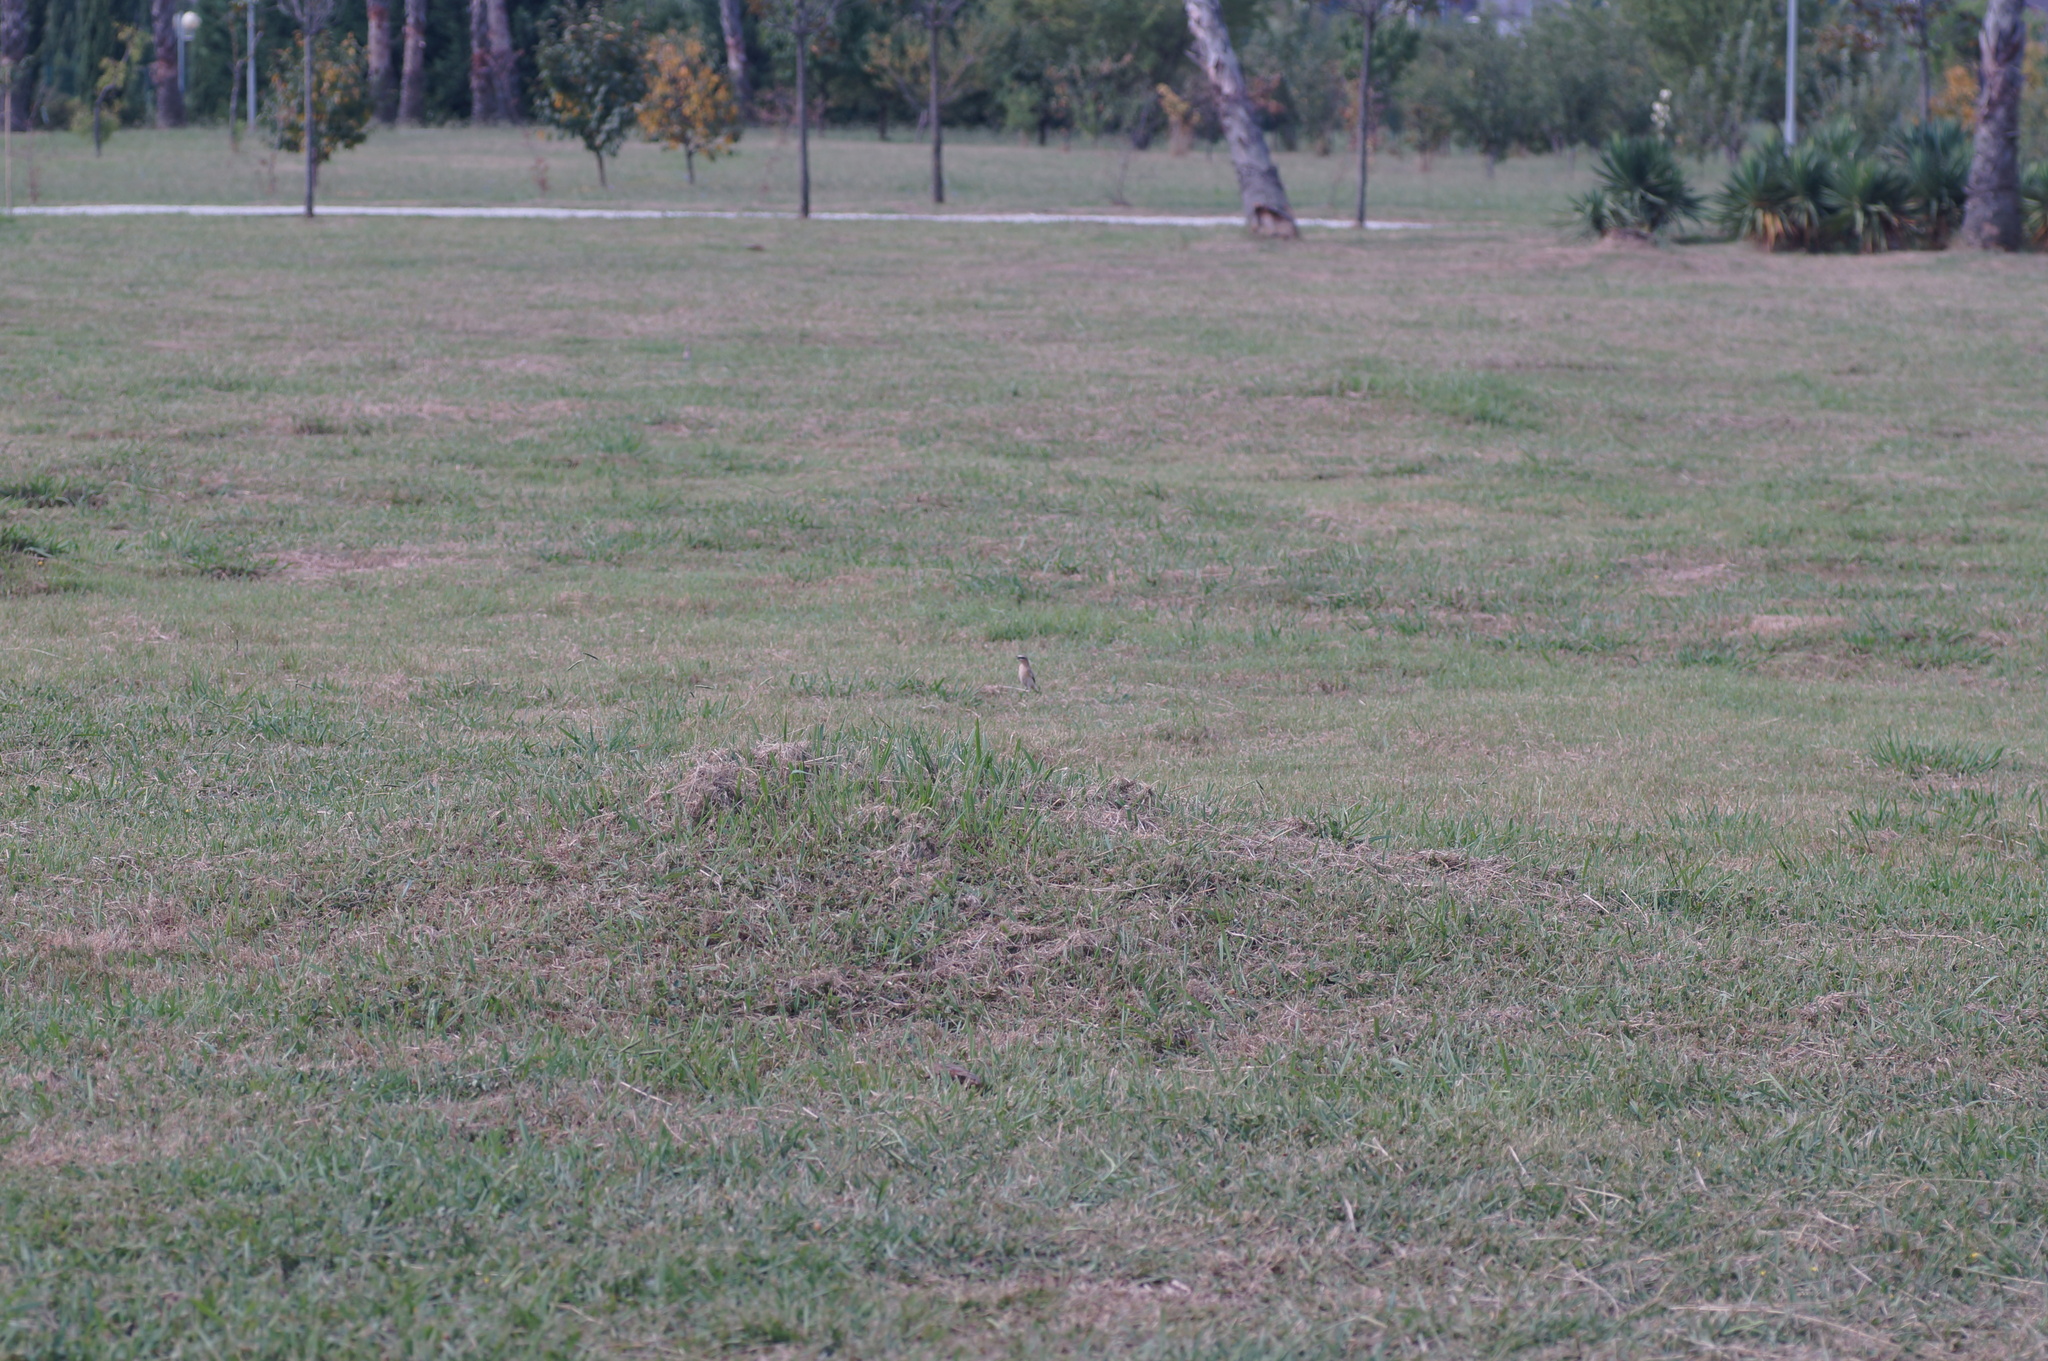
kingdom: Animalia
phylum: Chordata
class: Aves
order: Passeriformes
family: Muscicapidae
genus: Oenanthe
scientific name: Oenanthe isabellina
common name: Isabelline wheatear
